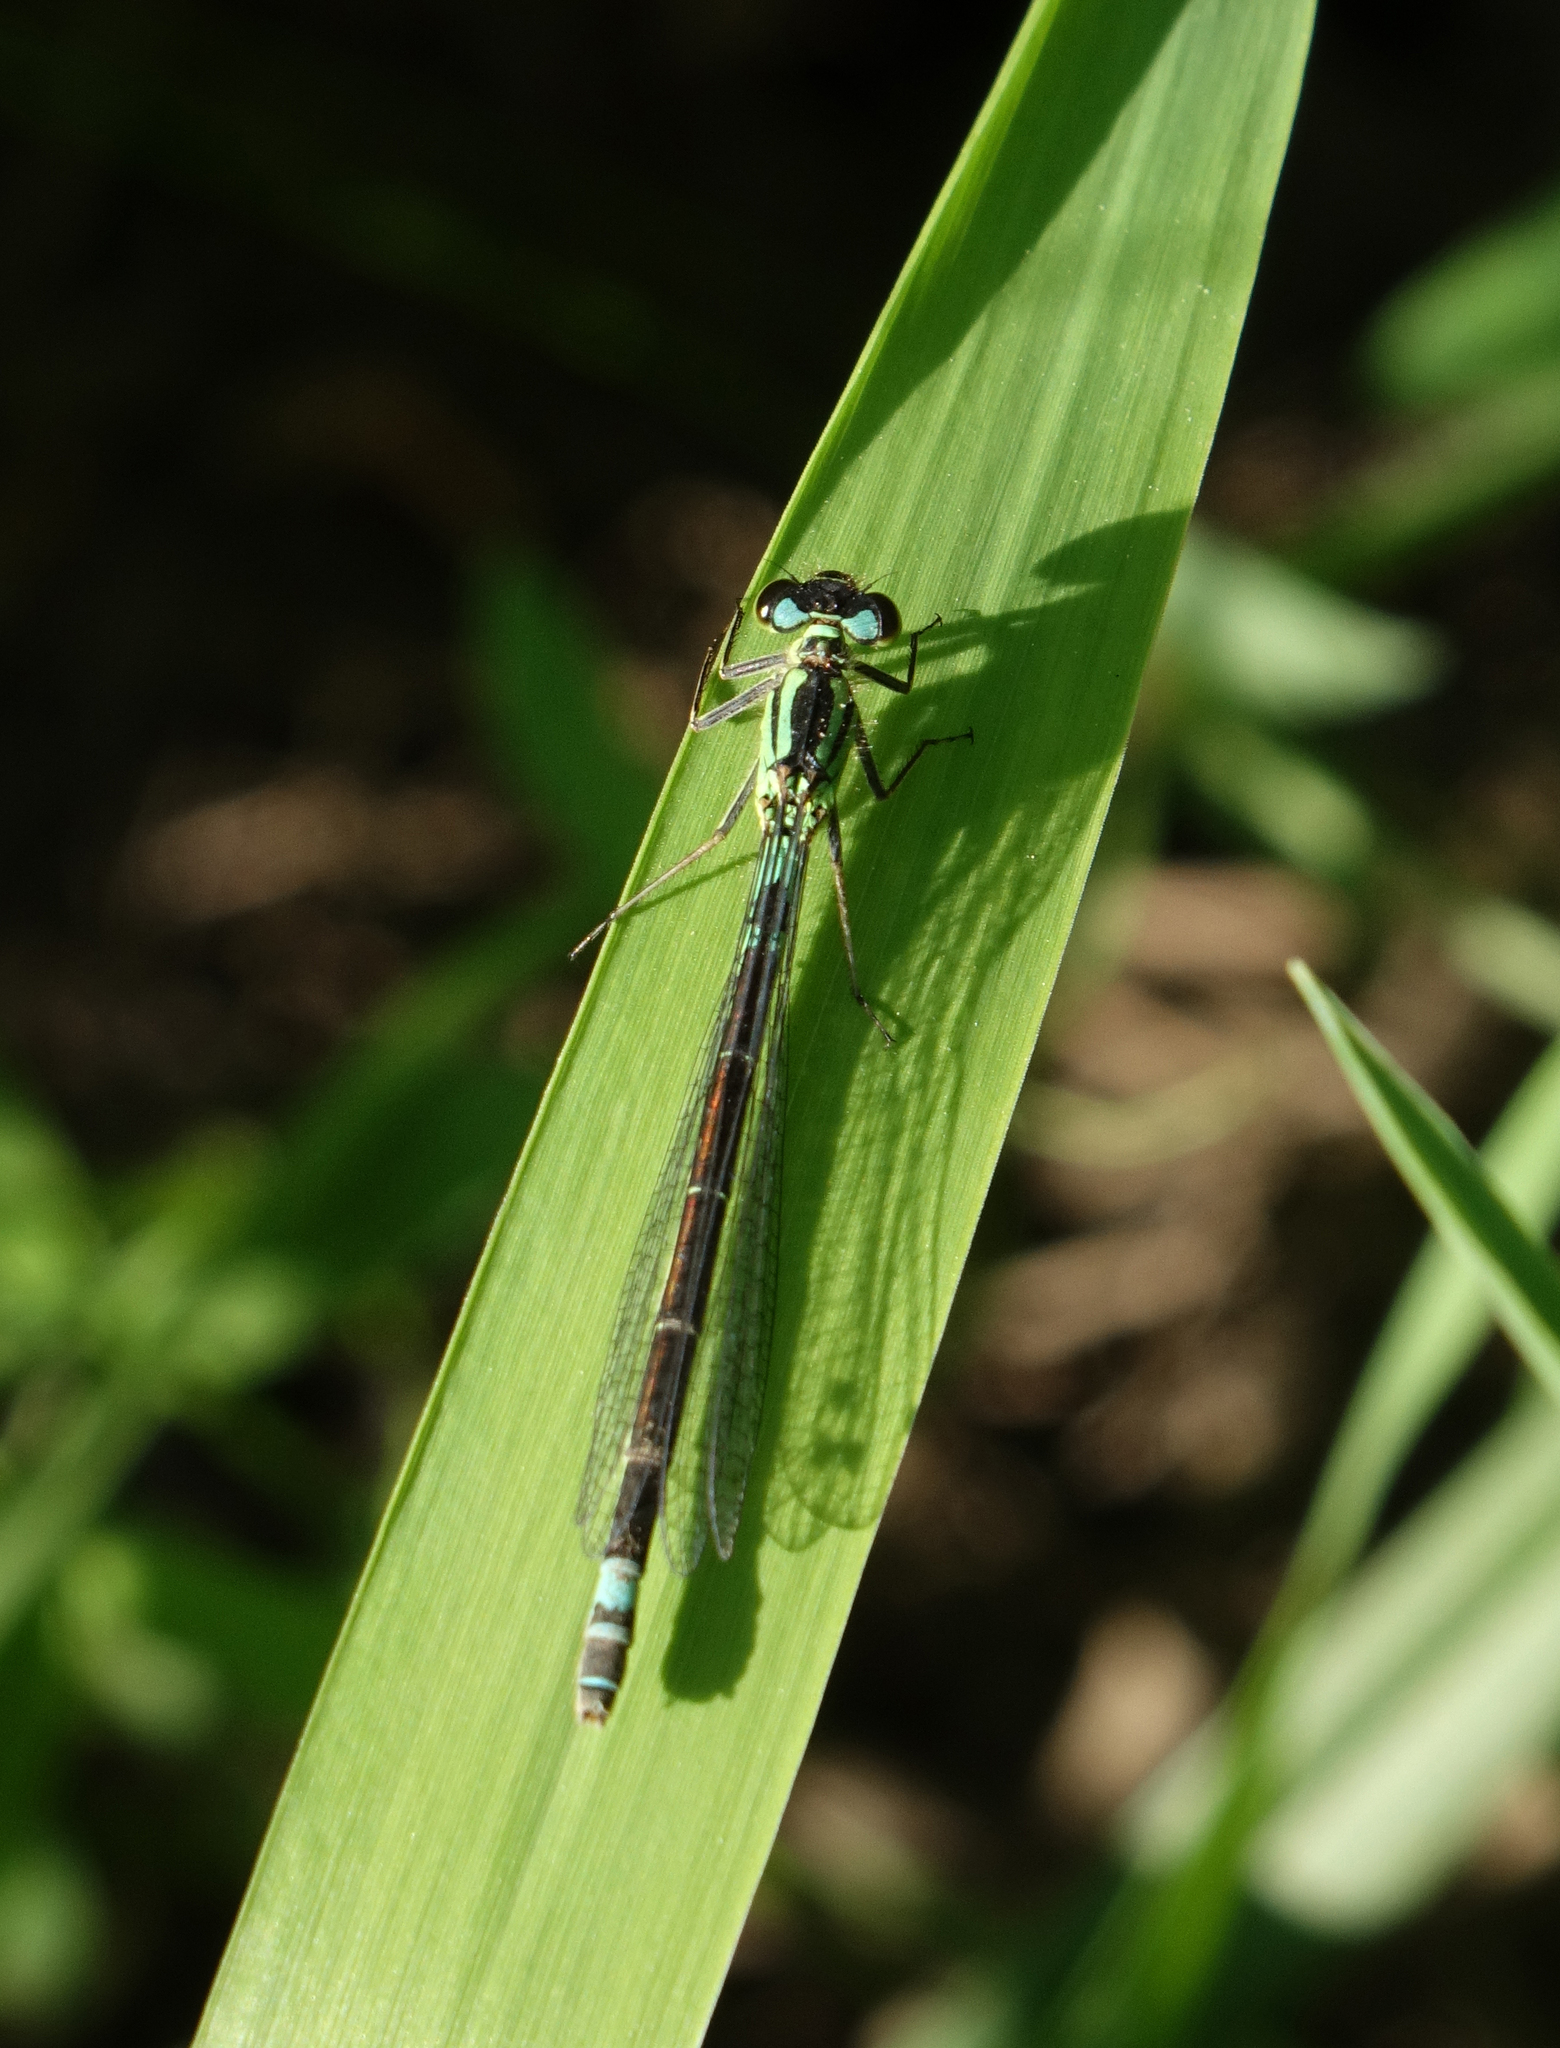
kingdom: Animalia
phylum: Arthropoda
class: Insecta
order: Odonata
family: Coenagrionidae
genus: Coenagrion
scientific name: Coenagrion armatum
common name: Dark bluet
